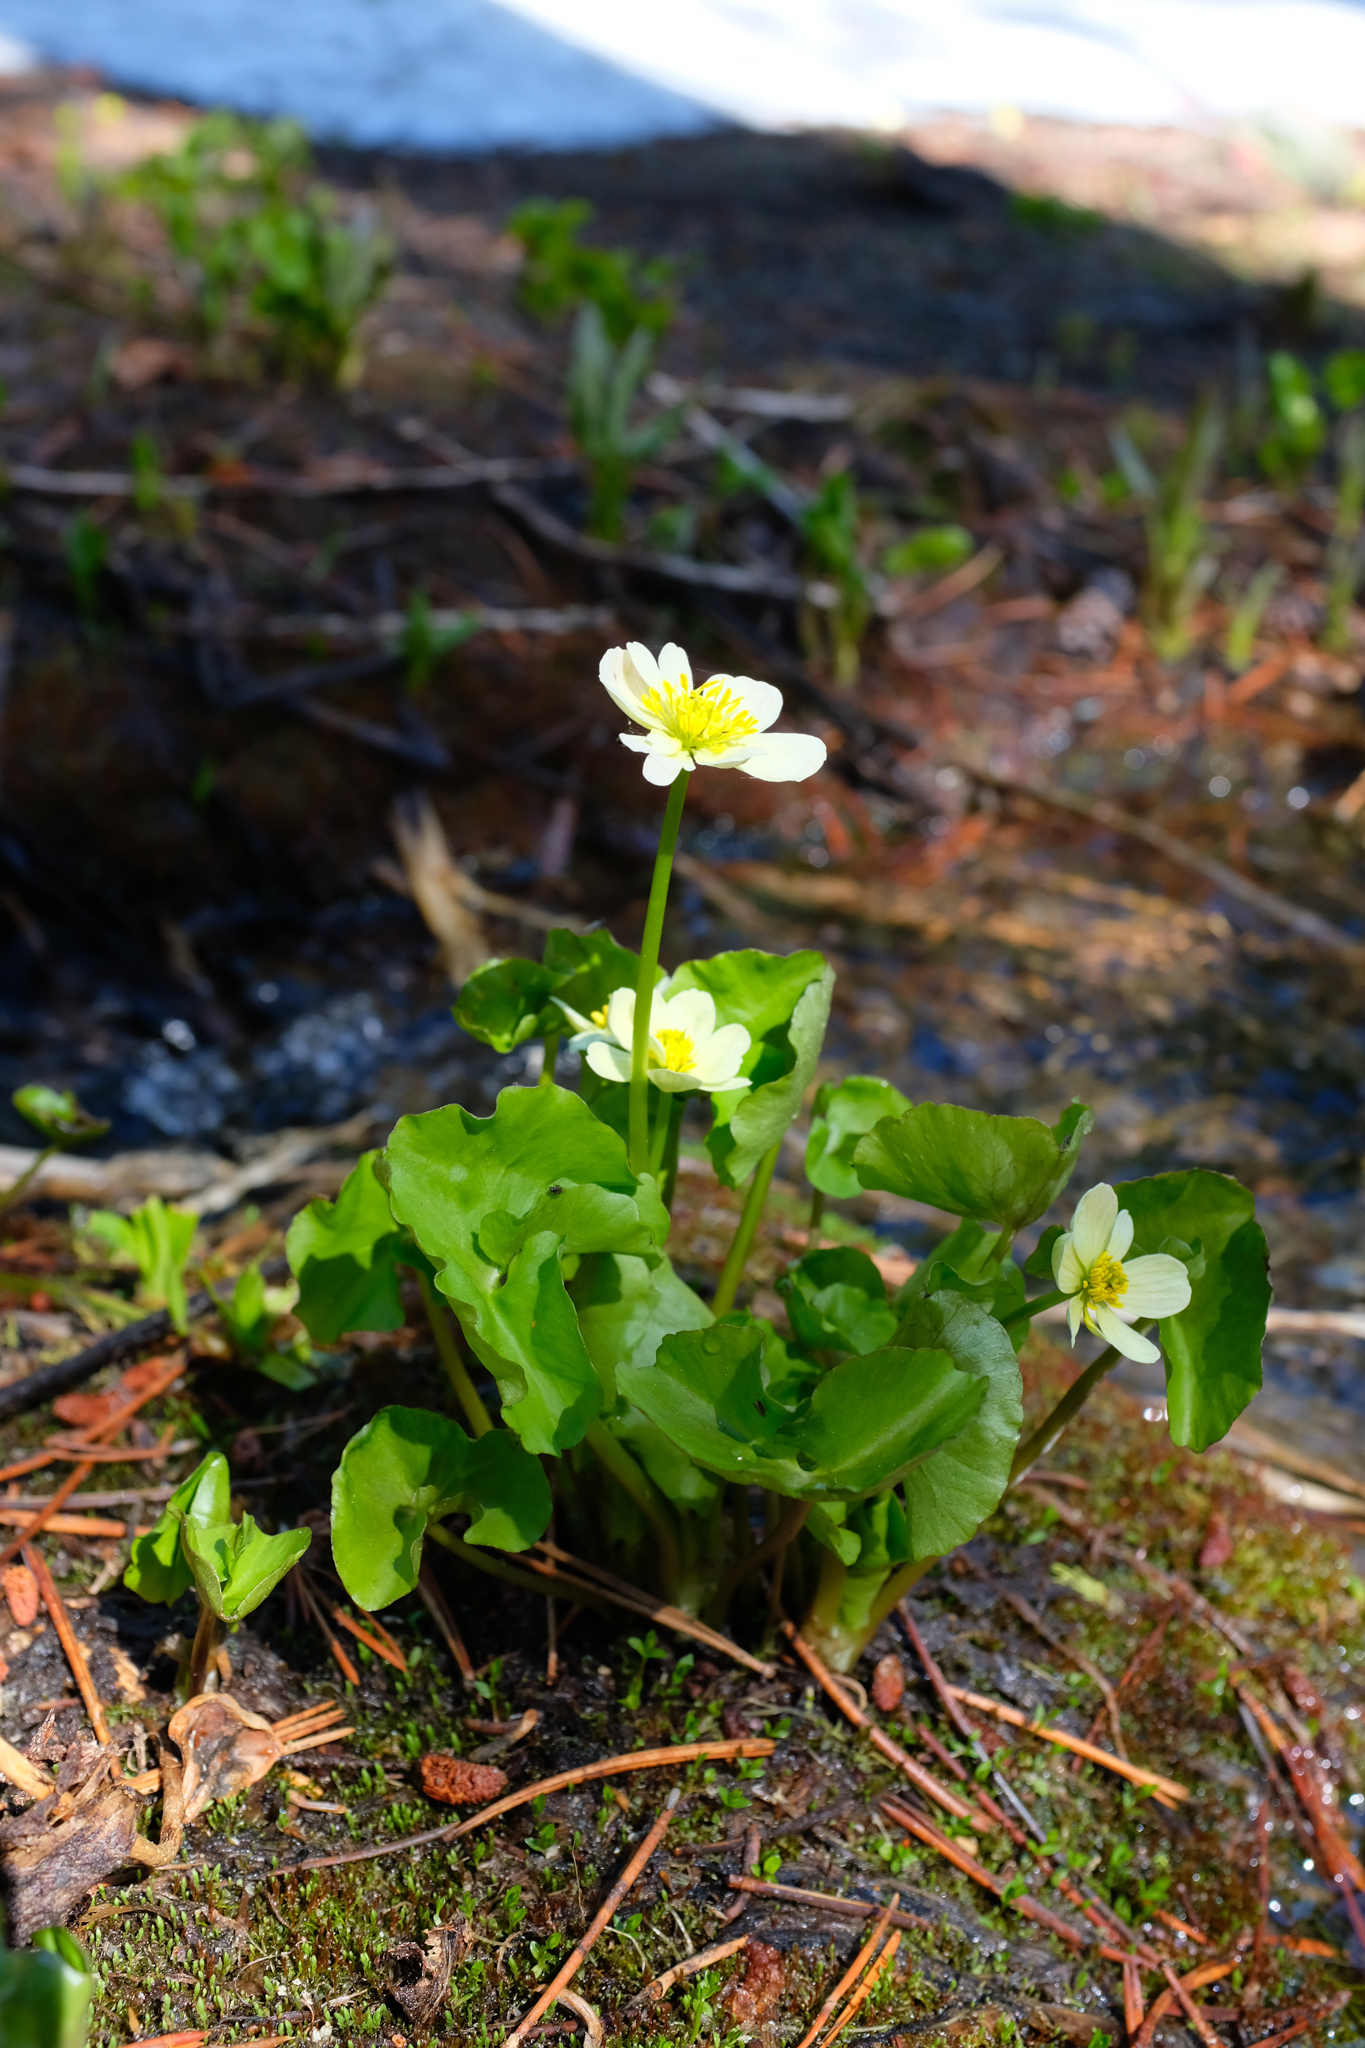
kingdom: Plantae
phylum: Tracheophyta
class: Magnoliopsida
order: Ranunculales
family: Ranunculaceae
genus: Caltha
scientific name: Caltha leptosepala
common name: Elkslip
